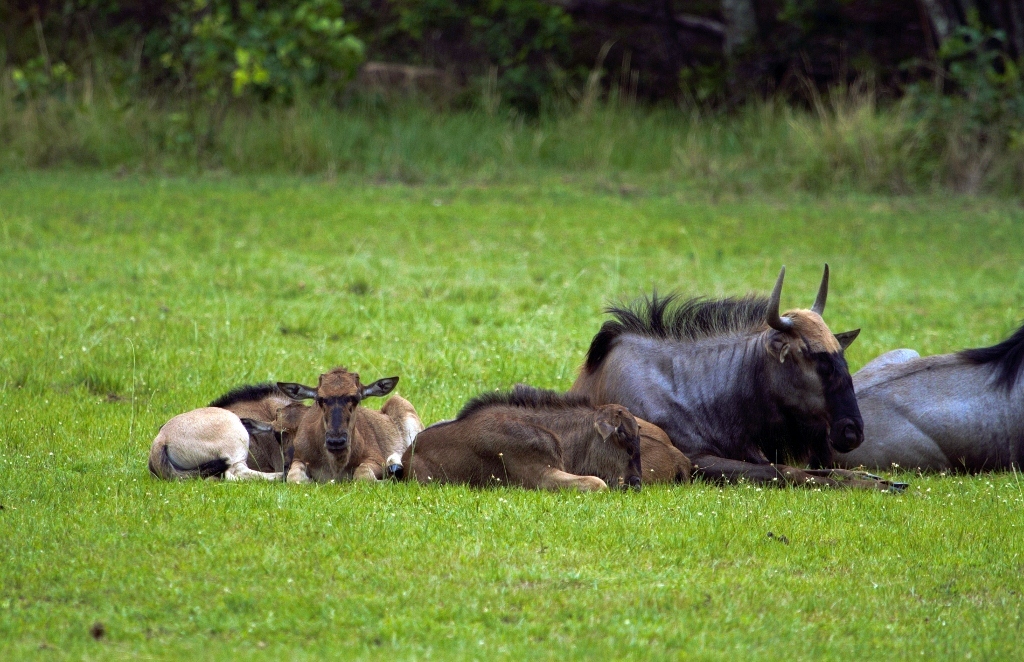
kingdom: Animalia
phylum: Chordata
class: Mammalia
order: Artiodactyla
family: Bovidae
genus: Connochaetes
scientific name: Connochaetes taurinus
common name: Blue wildebeest
